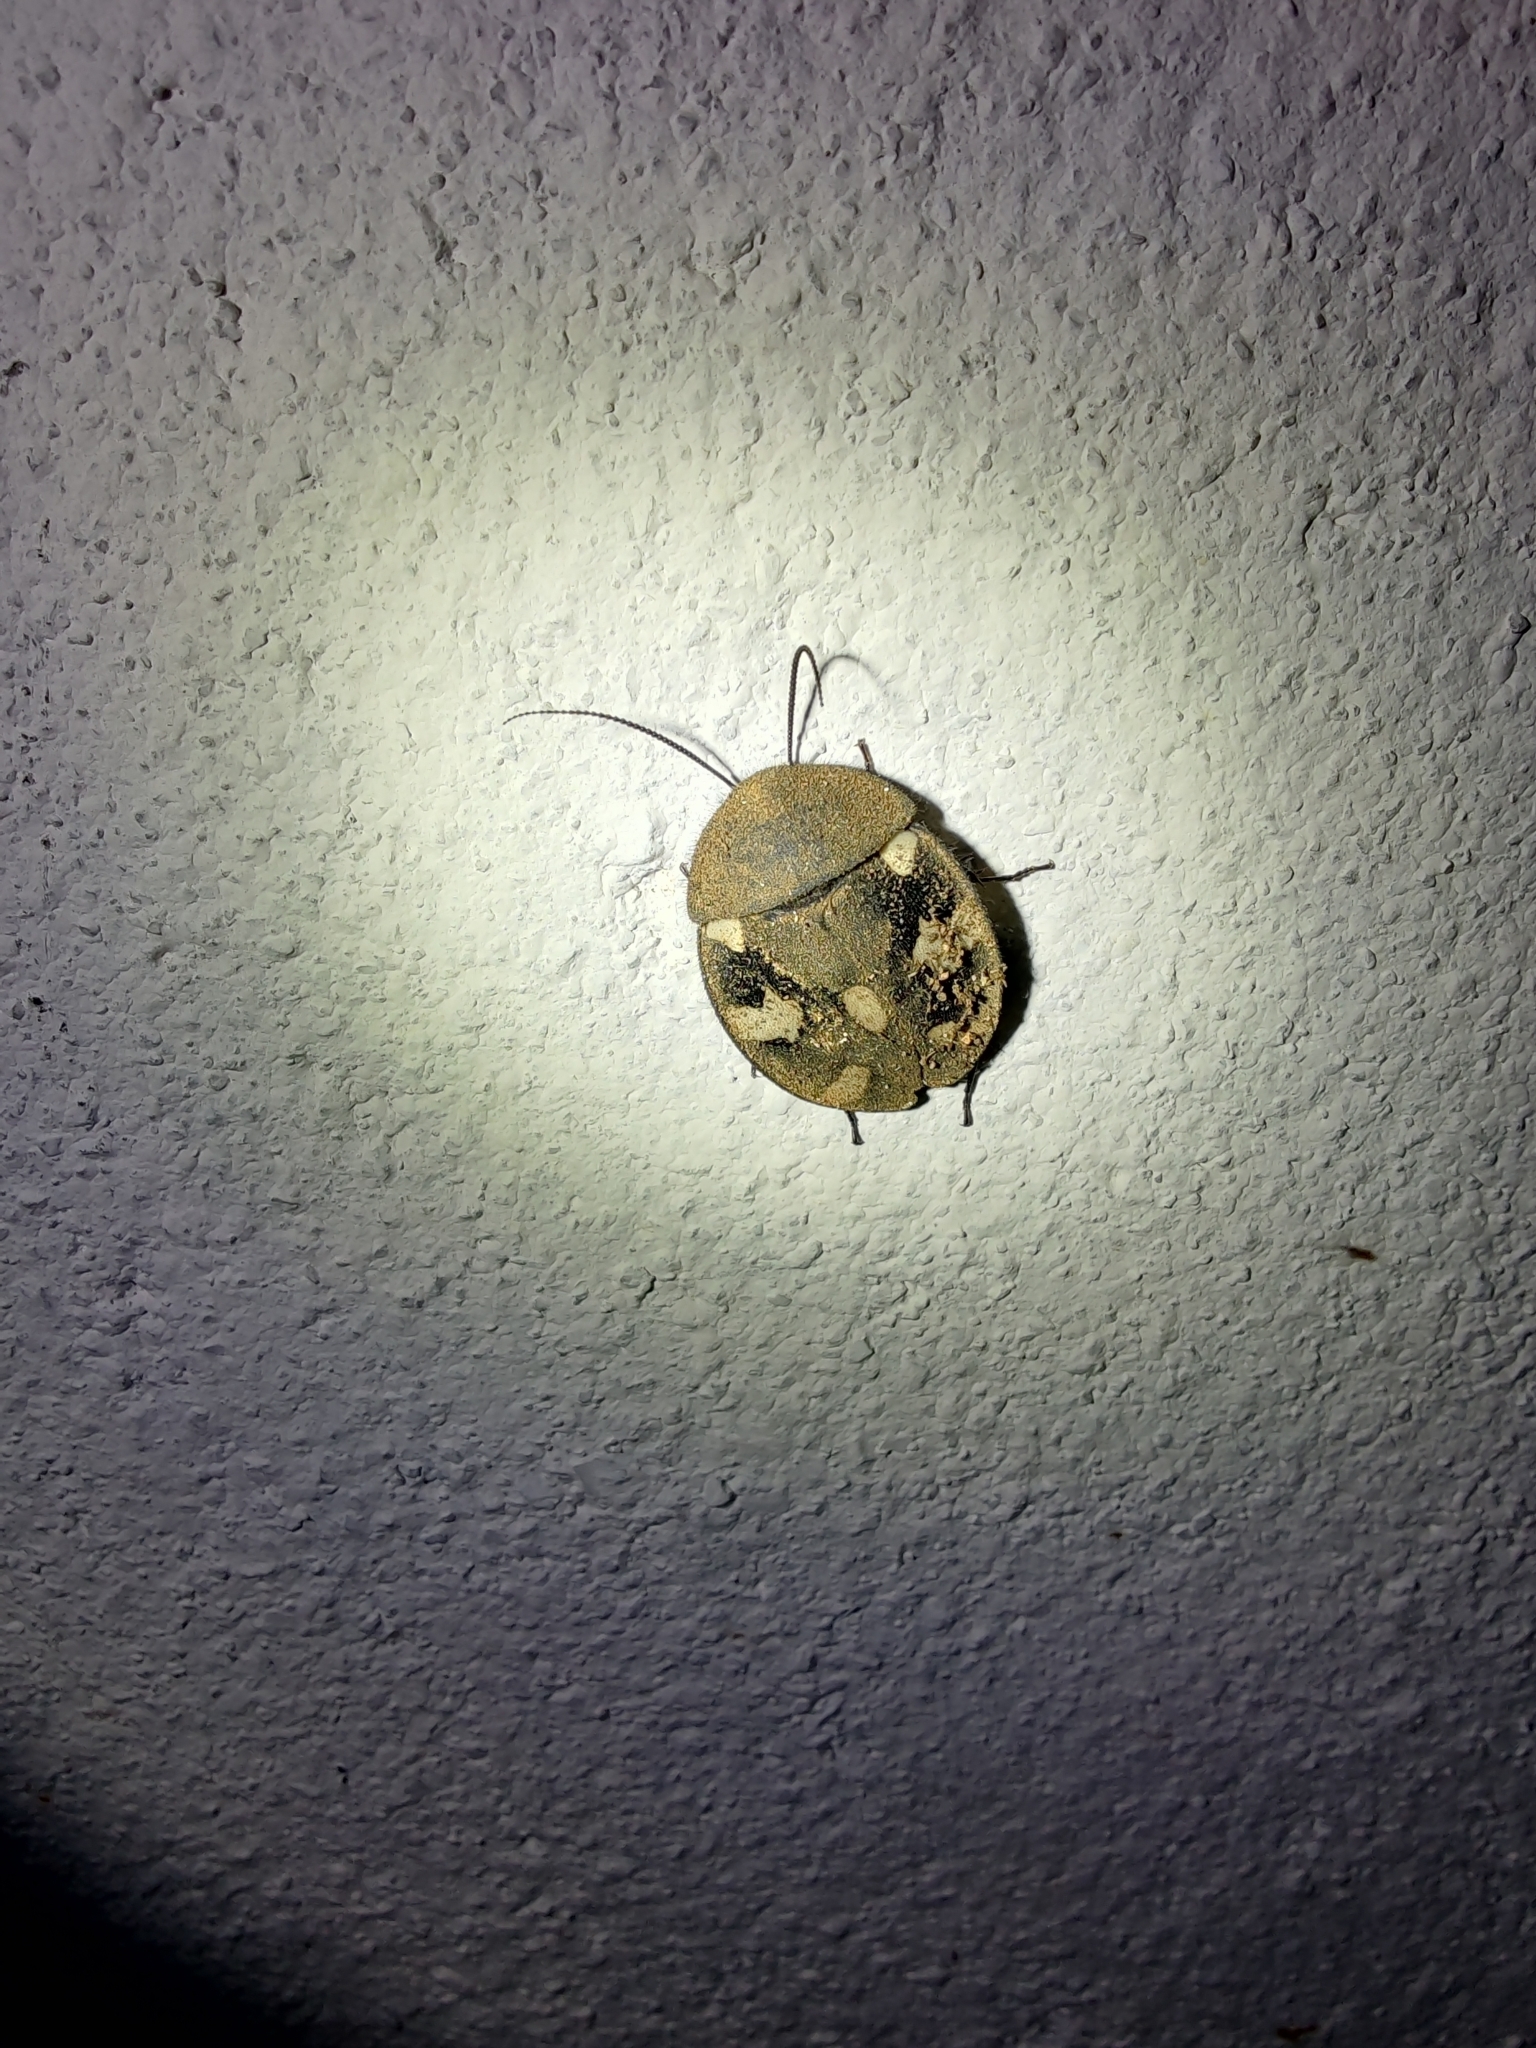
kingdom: Animalia
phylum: Arthropoda
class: Insecta
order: Blattodea
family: Corydiidae
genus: Therea
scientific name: Therea petiveriana
